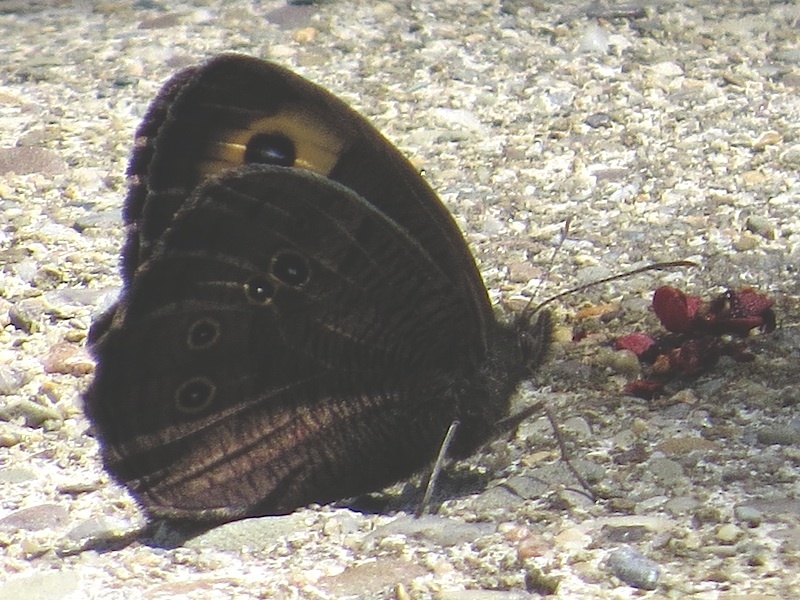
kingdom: Animalia
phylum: Arthropoda
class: Insecta
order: Lepidoptera
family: Nymphalidae
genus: Cercyonis
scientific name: Cercyonis pegala
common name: Common wood-nymph
